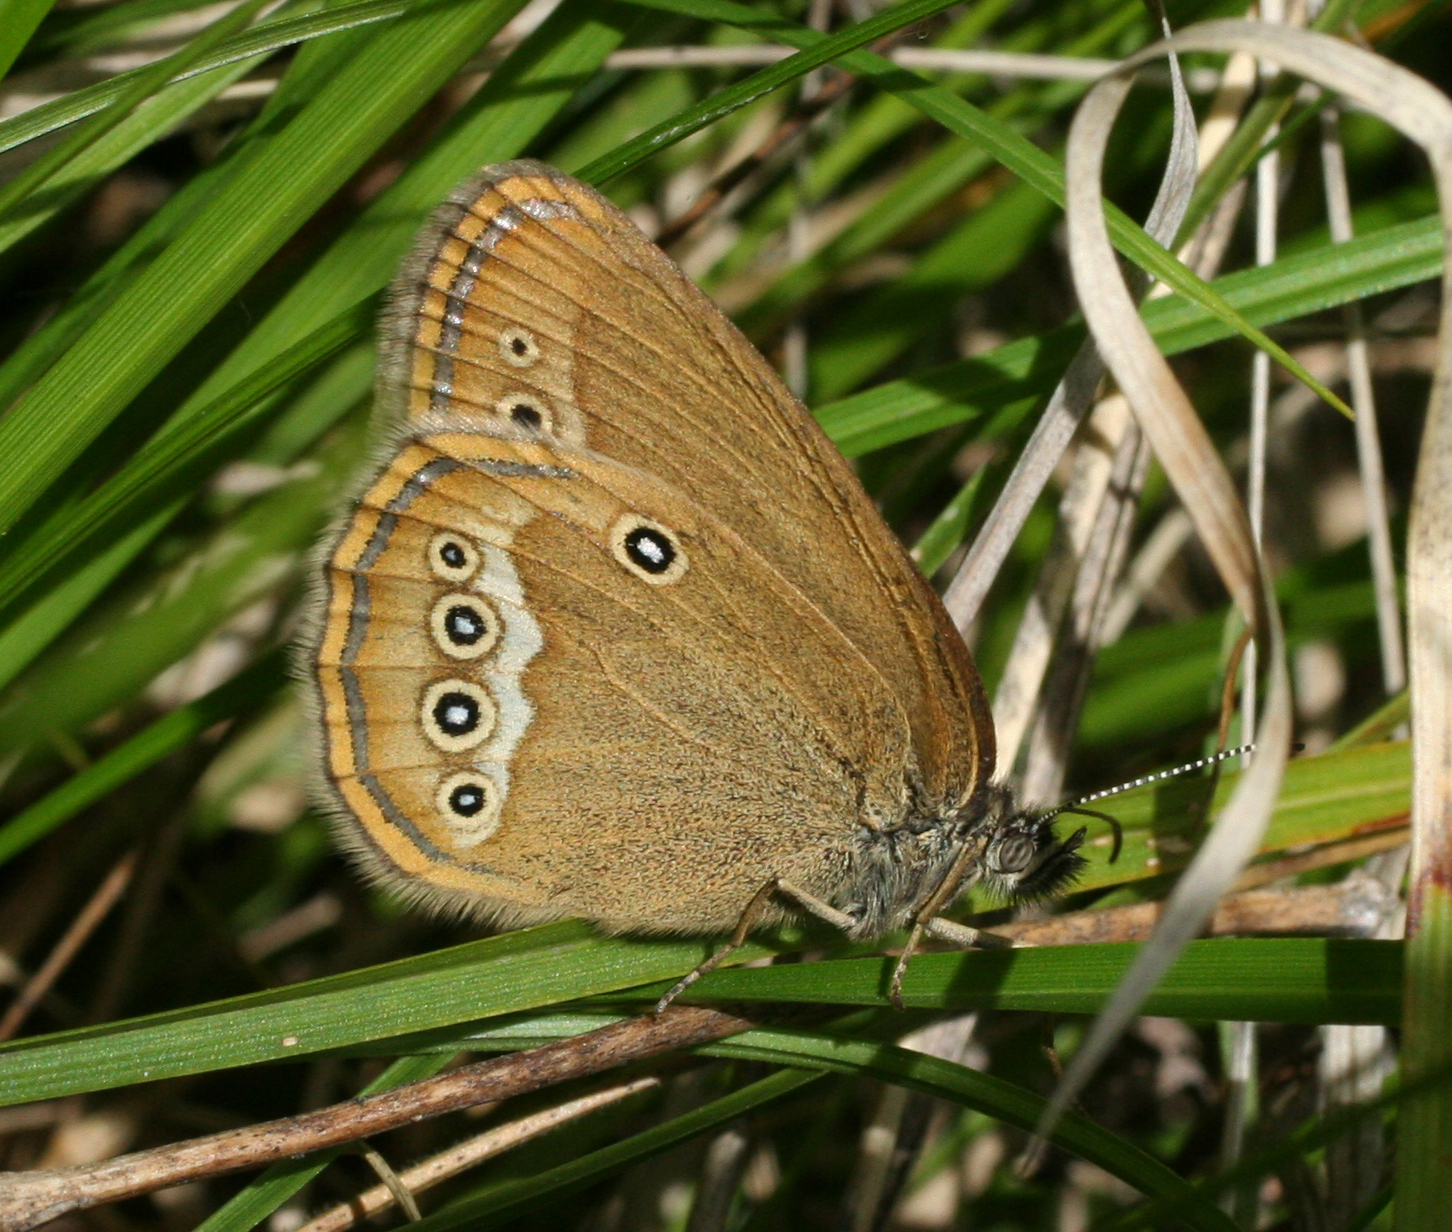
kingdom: Animalia
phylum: Arthropoda
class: Insecta
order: Lepidoptera
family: Nymphalidae
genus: Coenonympha
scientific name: Coenonympha oedippus
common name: False ringlet
